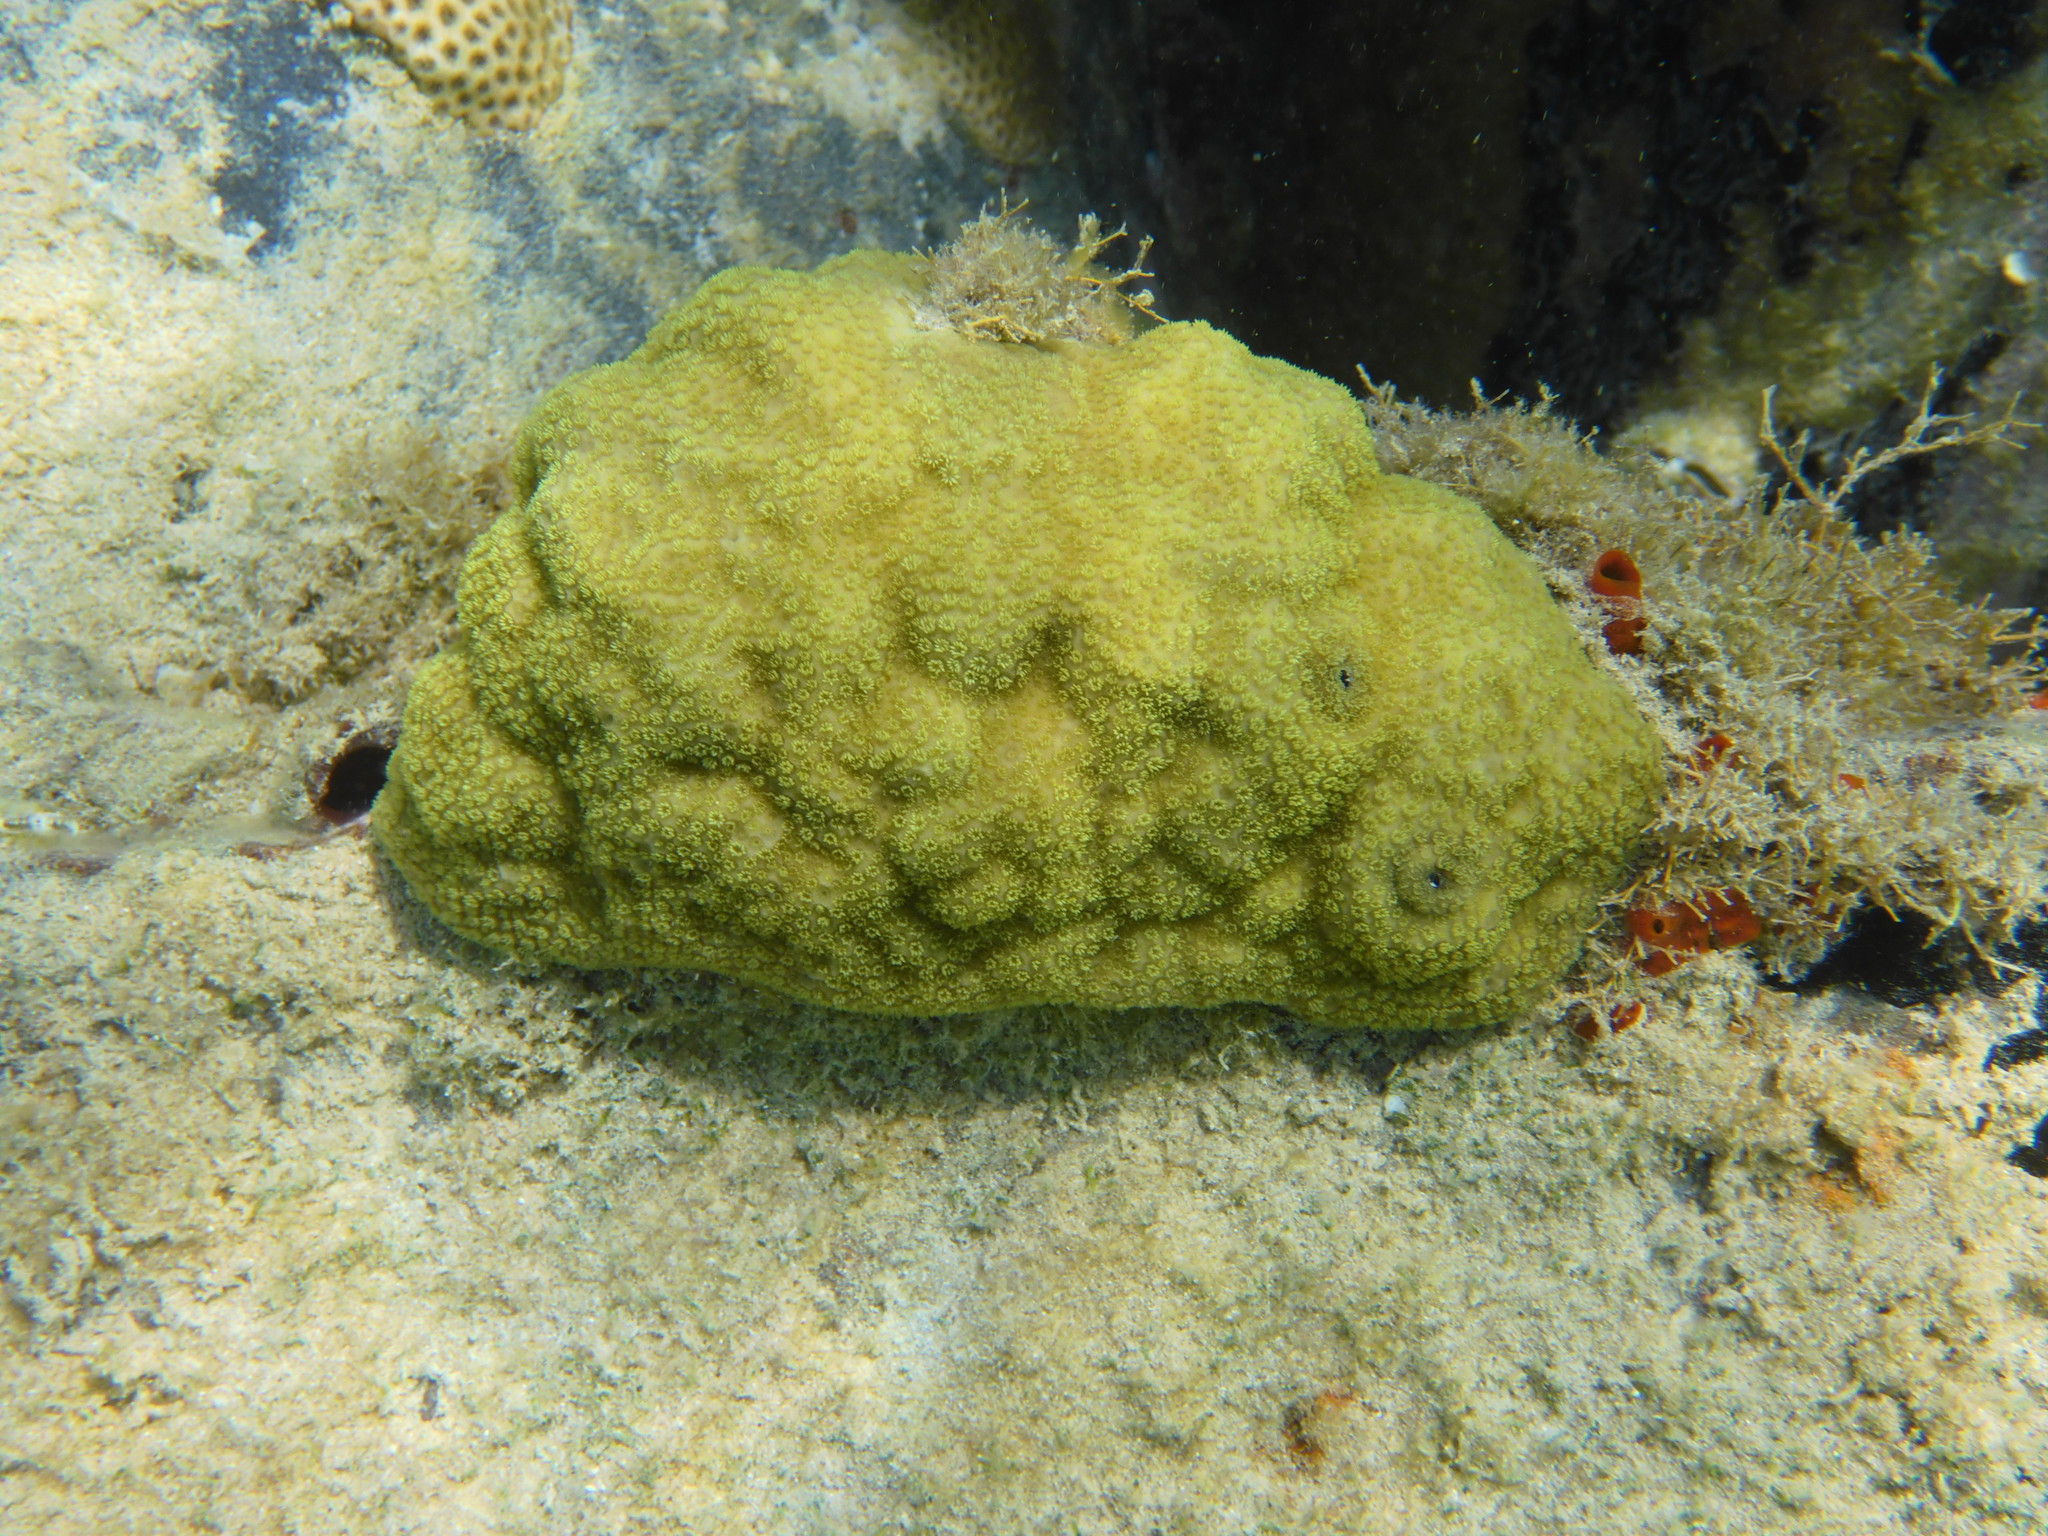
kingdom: Animalia
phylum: Cnidaria
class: Anthozoa
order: Scleractinia
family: Poritidae
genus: Porites
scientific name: Porites astreoides
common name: Mustard hill coral
